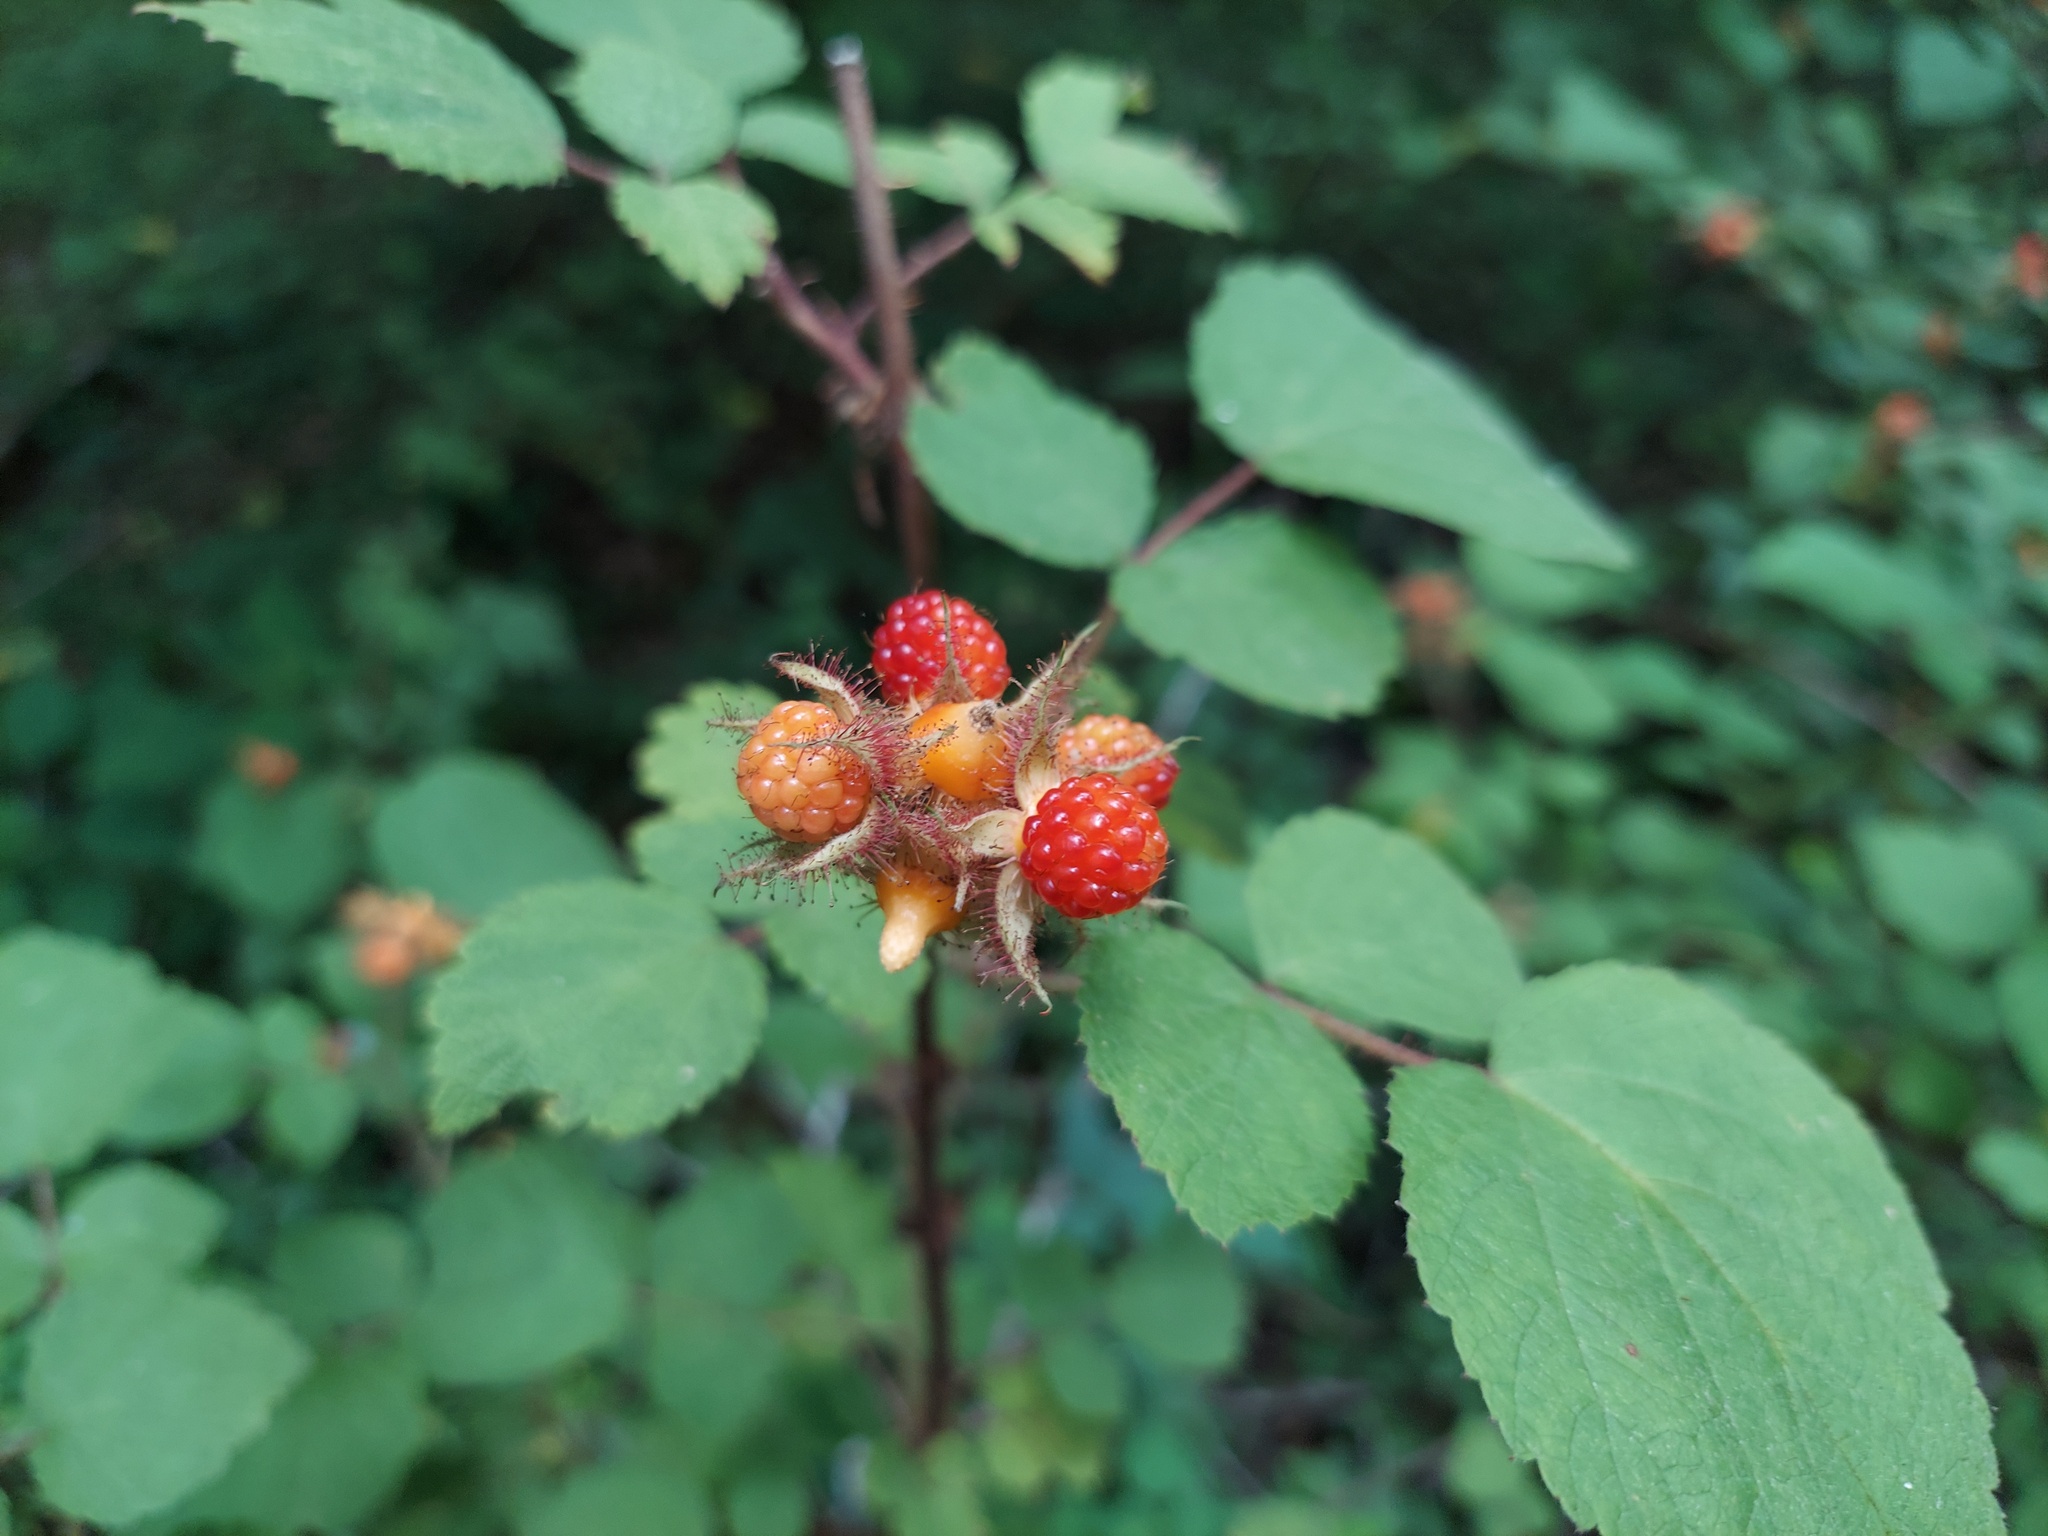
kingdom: Plantae
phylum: Tracheophyta
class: Magnoliopsida
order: Rosales
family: Rosaceae
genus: Rubus
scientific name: Rubus phoenicolasius
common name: Japanese wineberry
